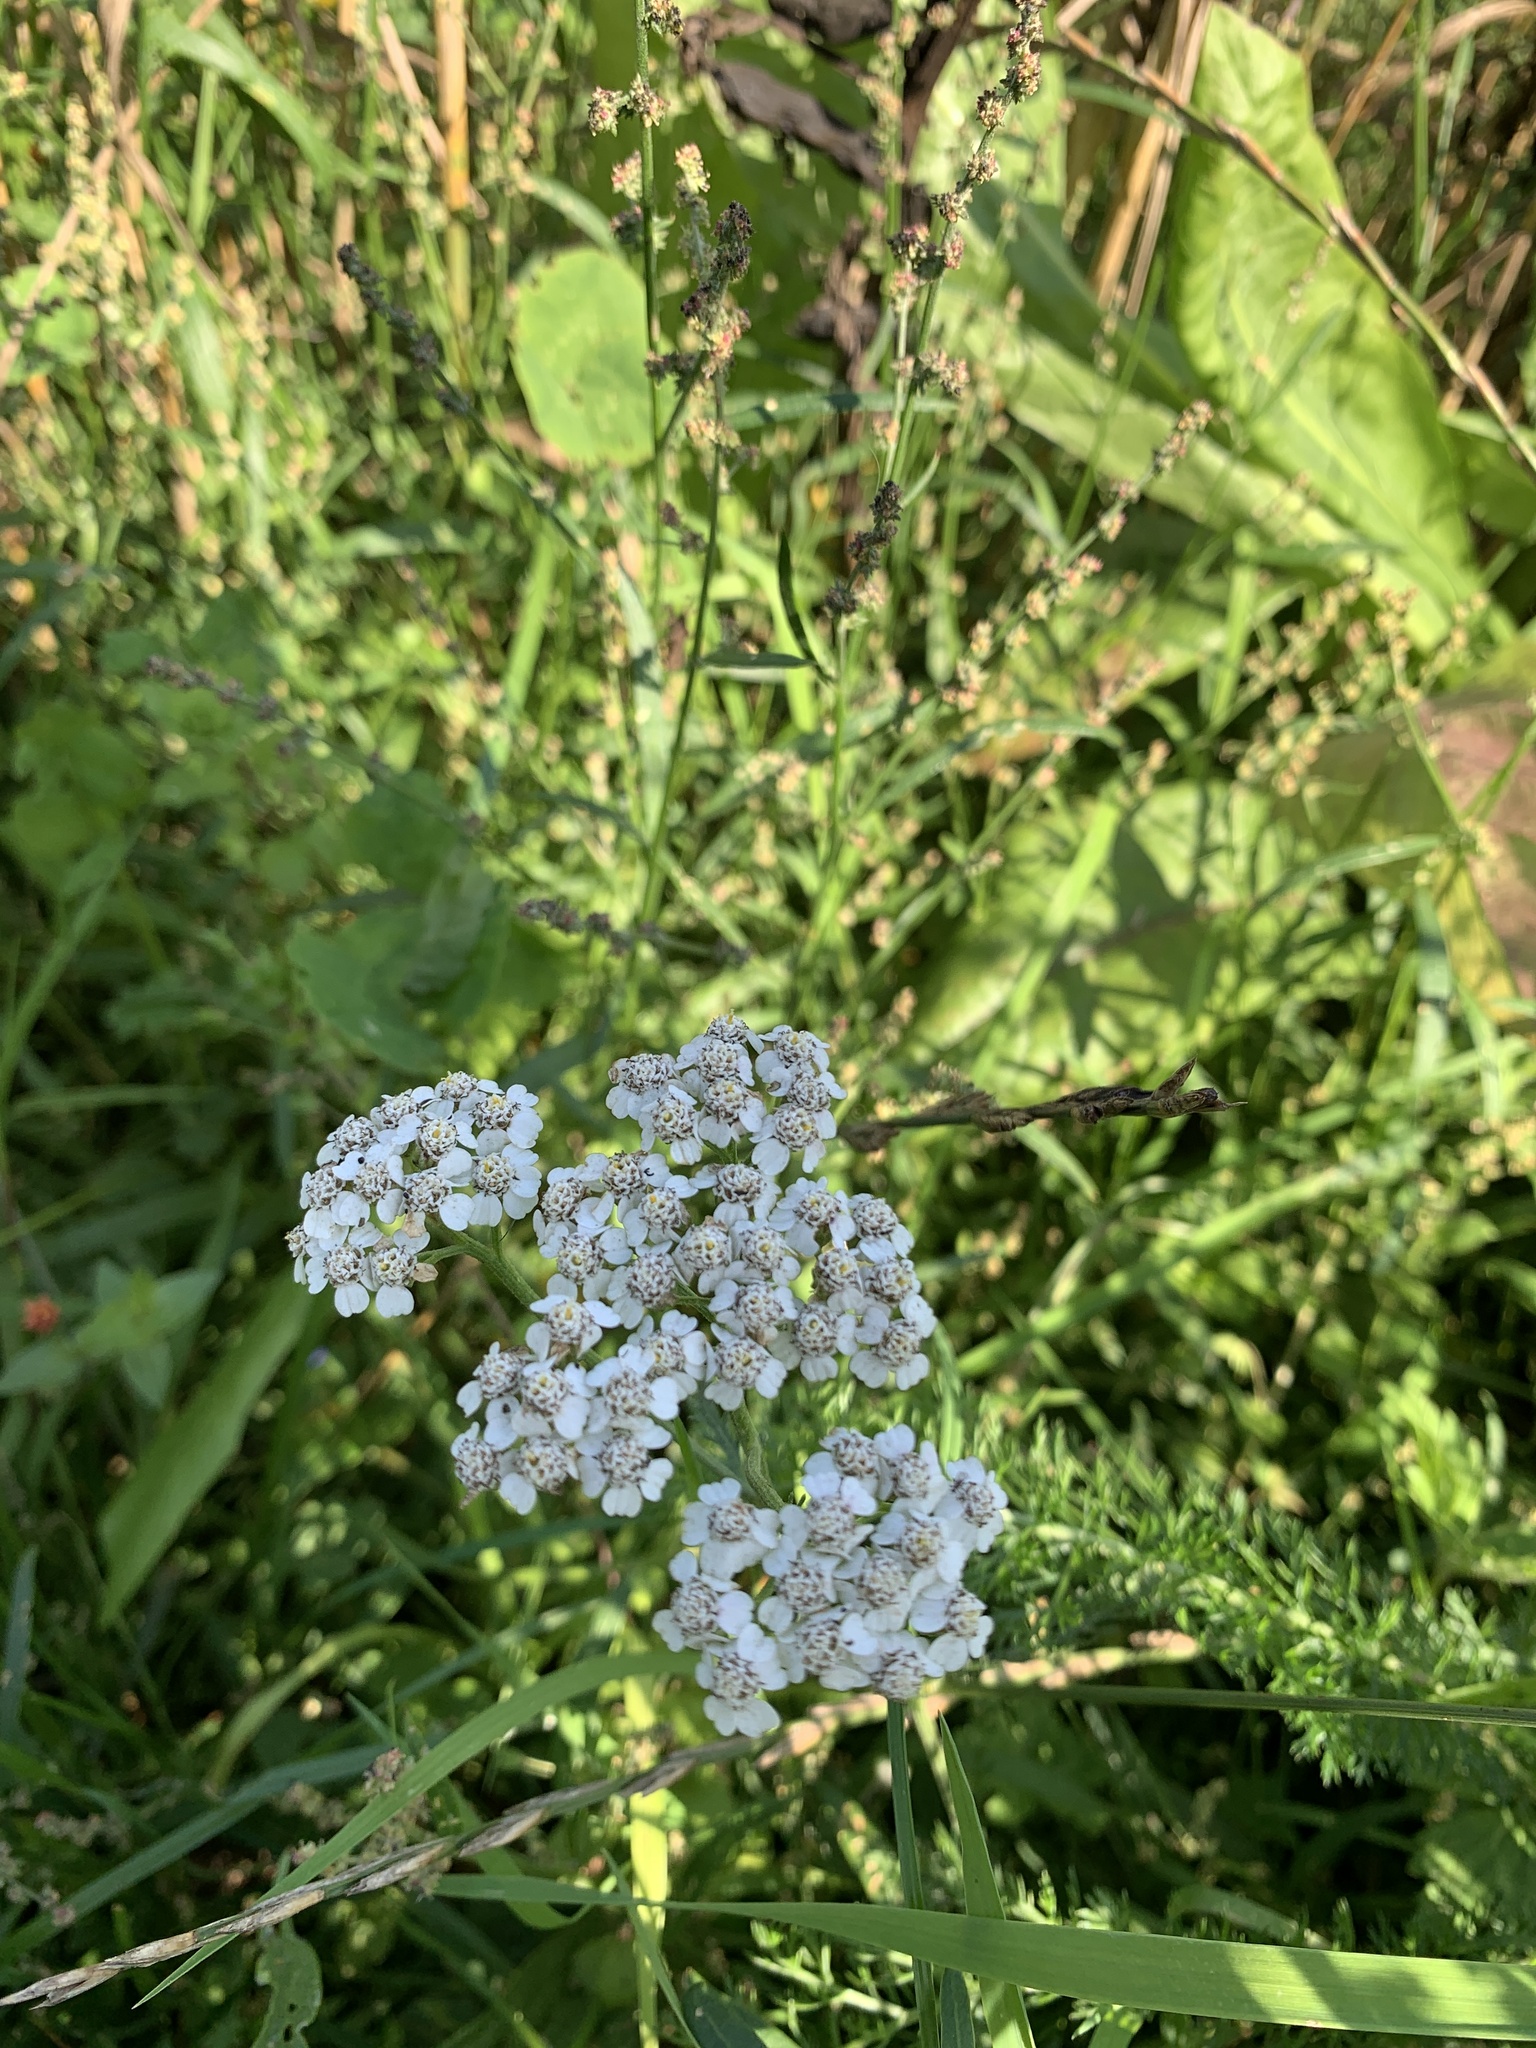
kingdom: Plantae
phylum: Tracheophyta
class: Magnoliopsida
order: Asterales
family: Asteraceae
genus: Achillea
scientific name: Achillea millefolium
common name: Yarrow
